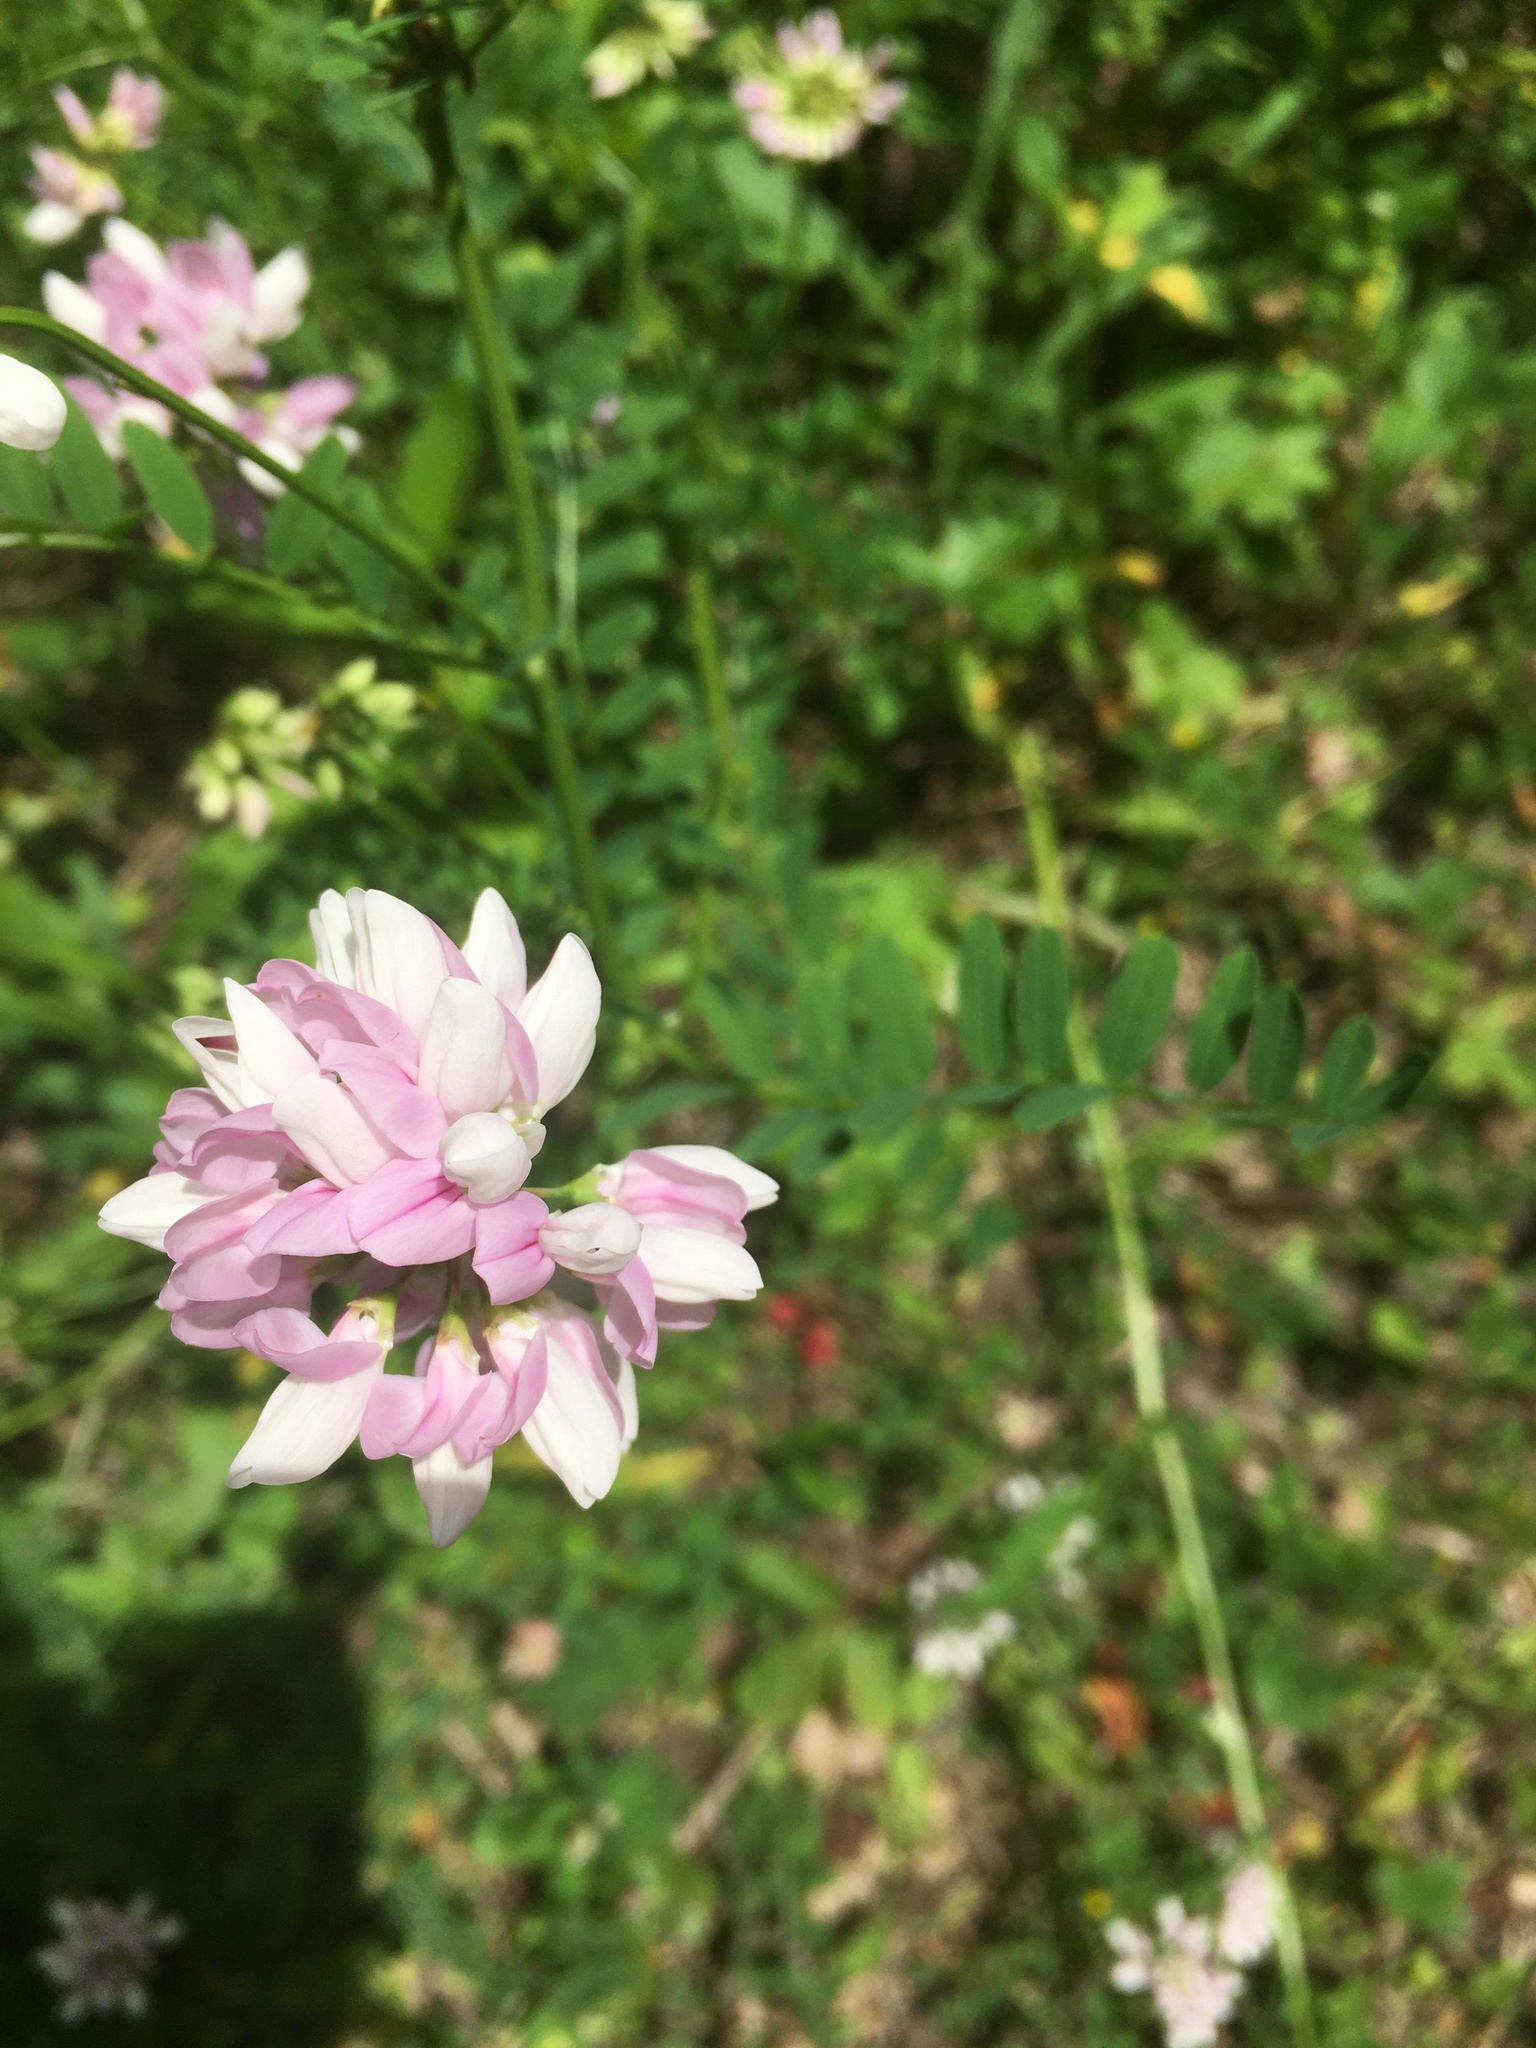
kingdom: Plantae
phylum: Tracheophyta
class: Magnoliopsida
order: Fabales
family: Fabaceae
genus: Coronilla
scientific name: Coronilla varia
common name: Crownvetch
